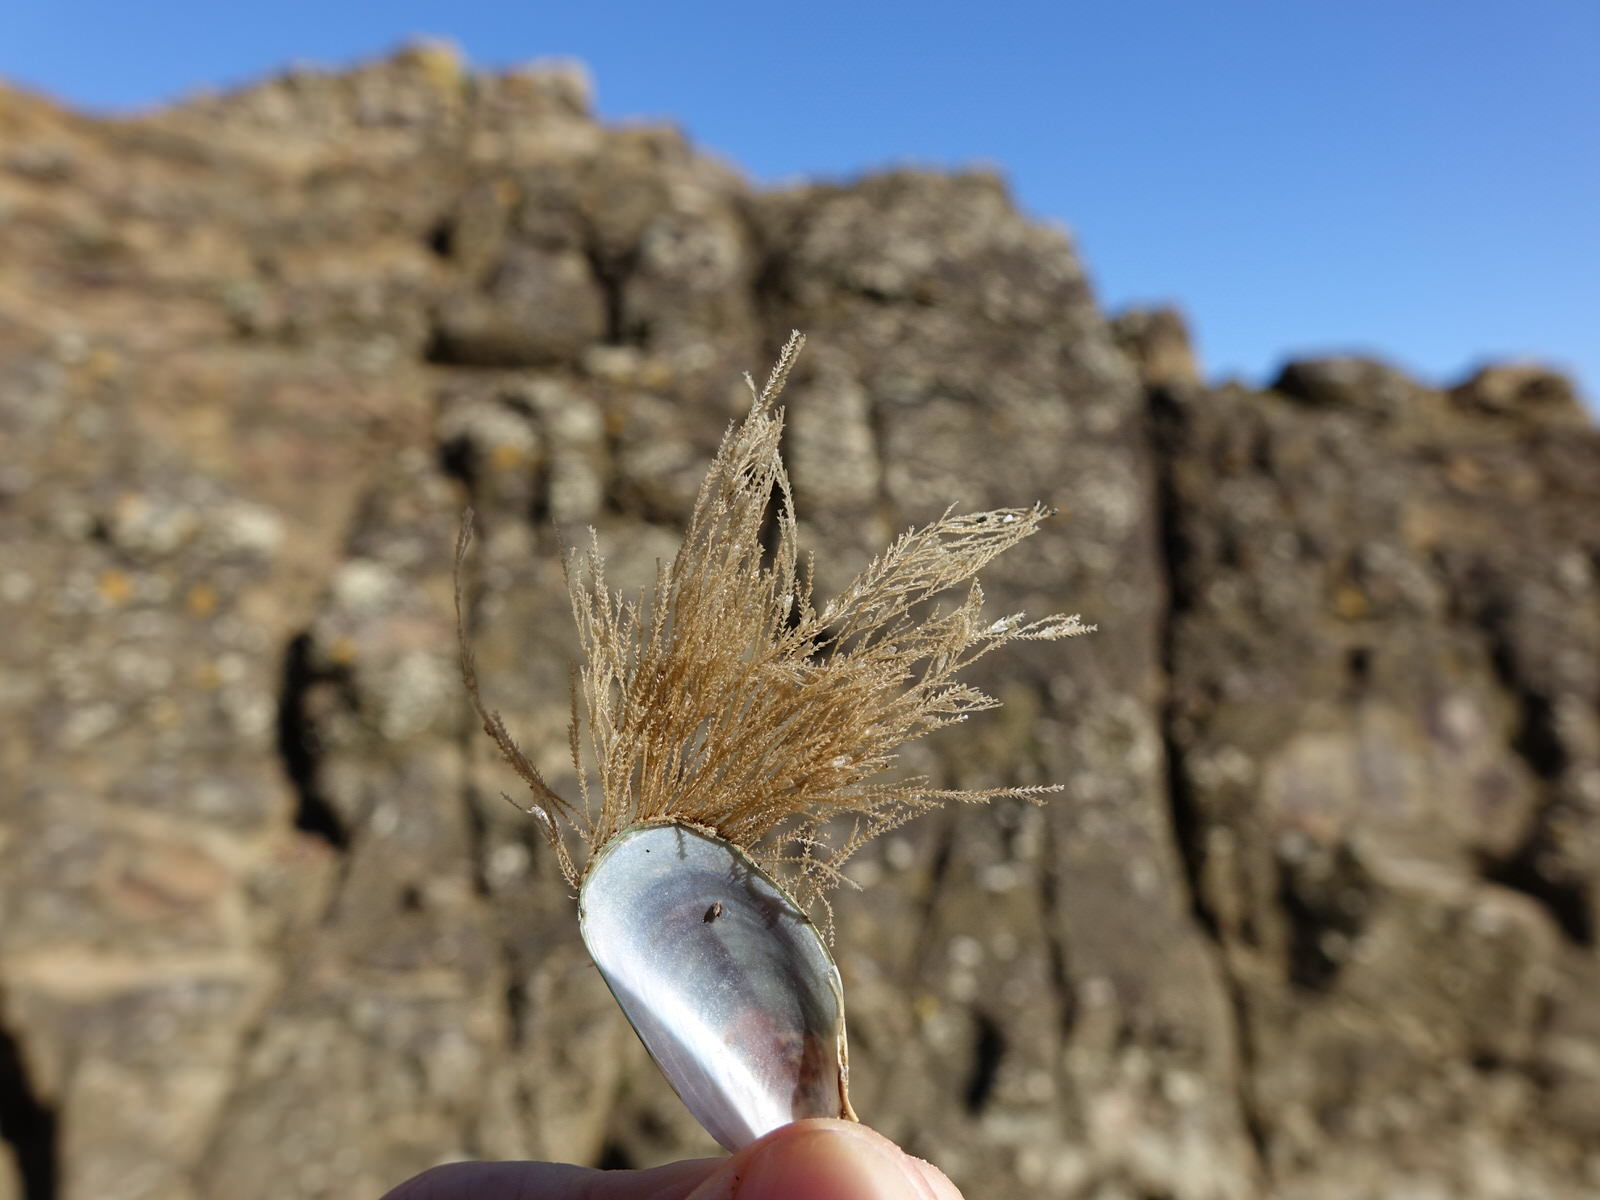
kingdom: Animalia
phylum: Cnidaria
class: Hydrozoa
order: Leptothecata
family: Sertulariidae
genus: Amphisbetia
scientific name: Amphisbetia bispinosa
